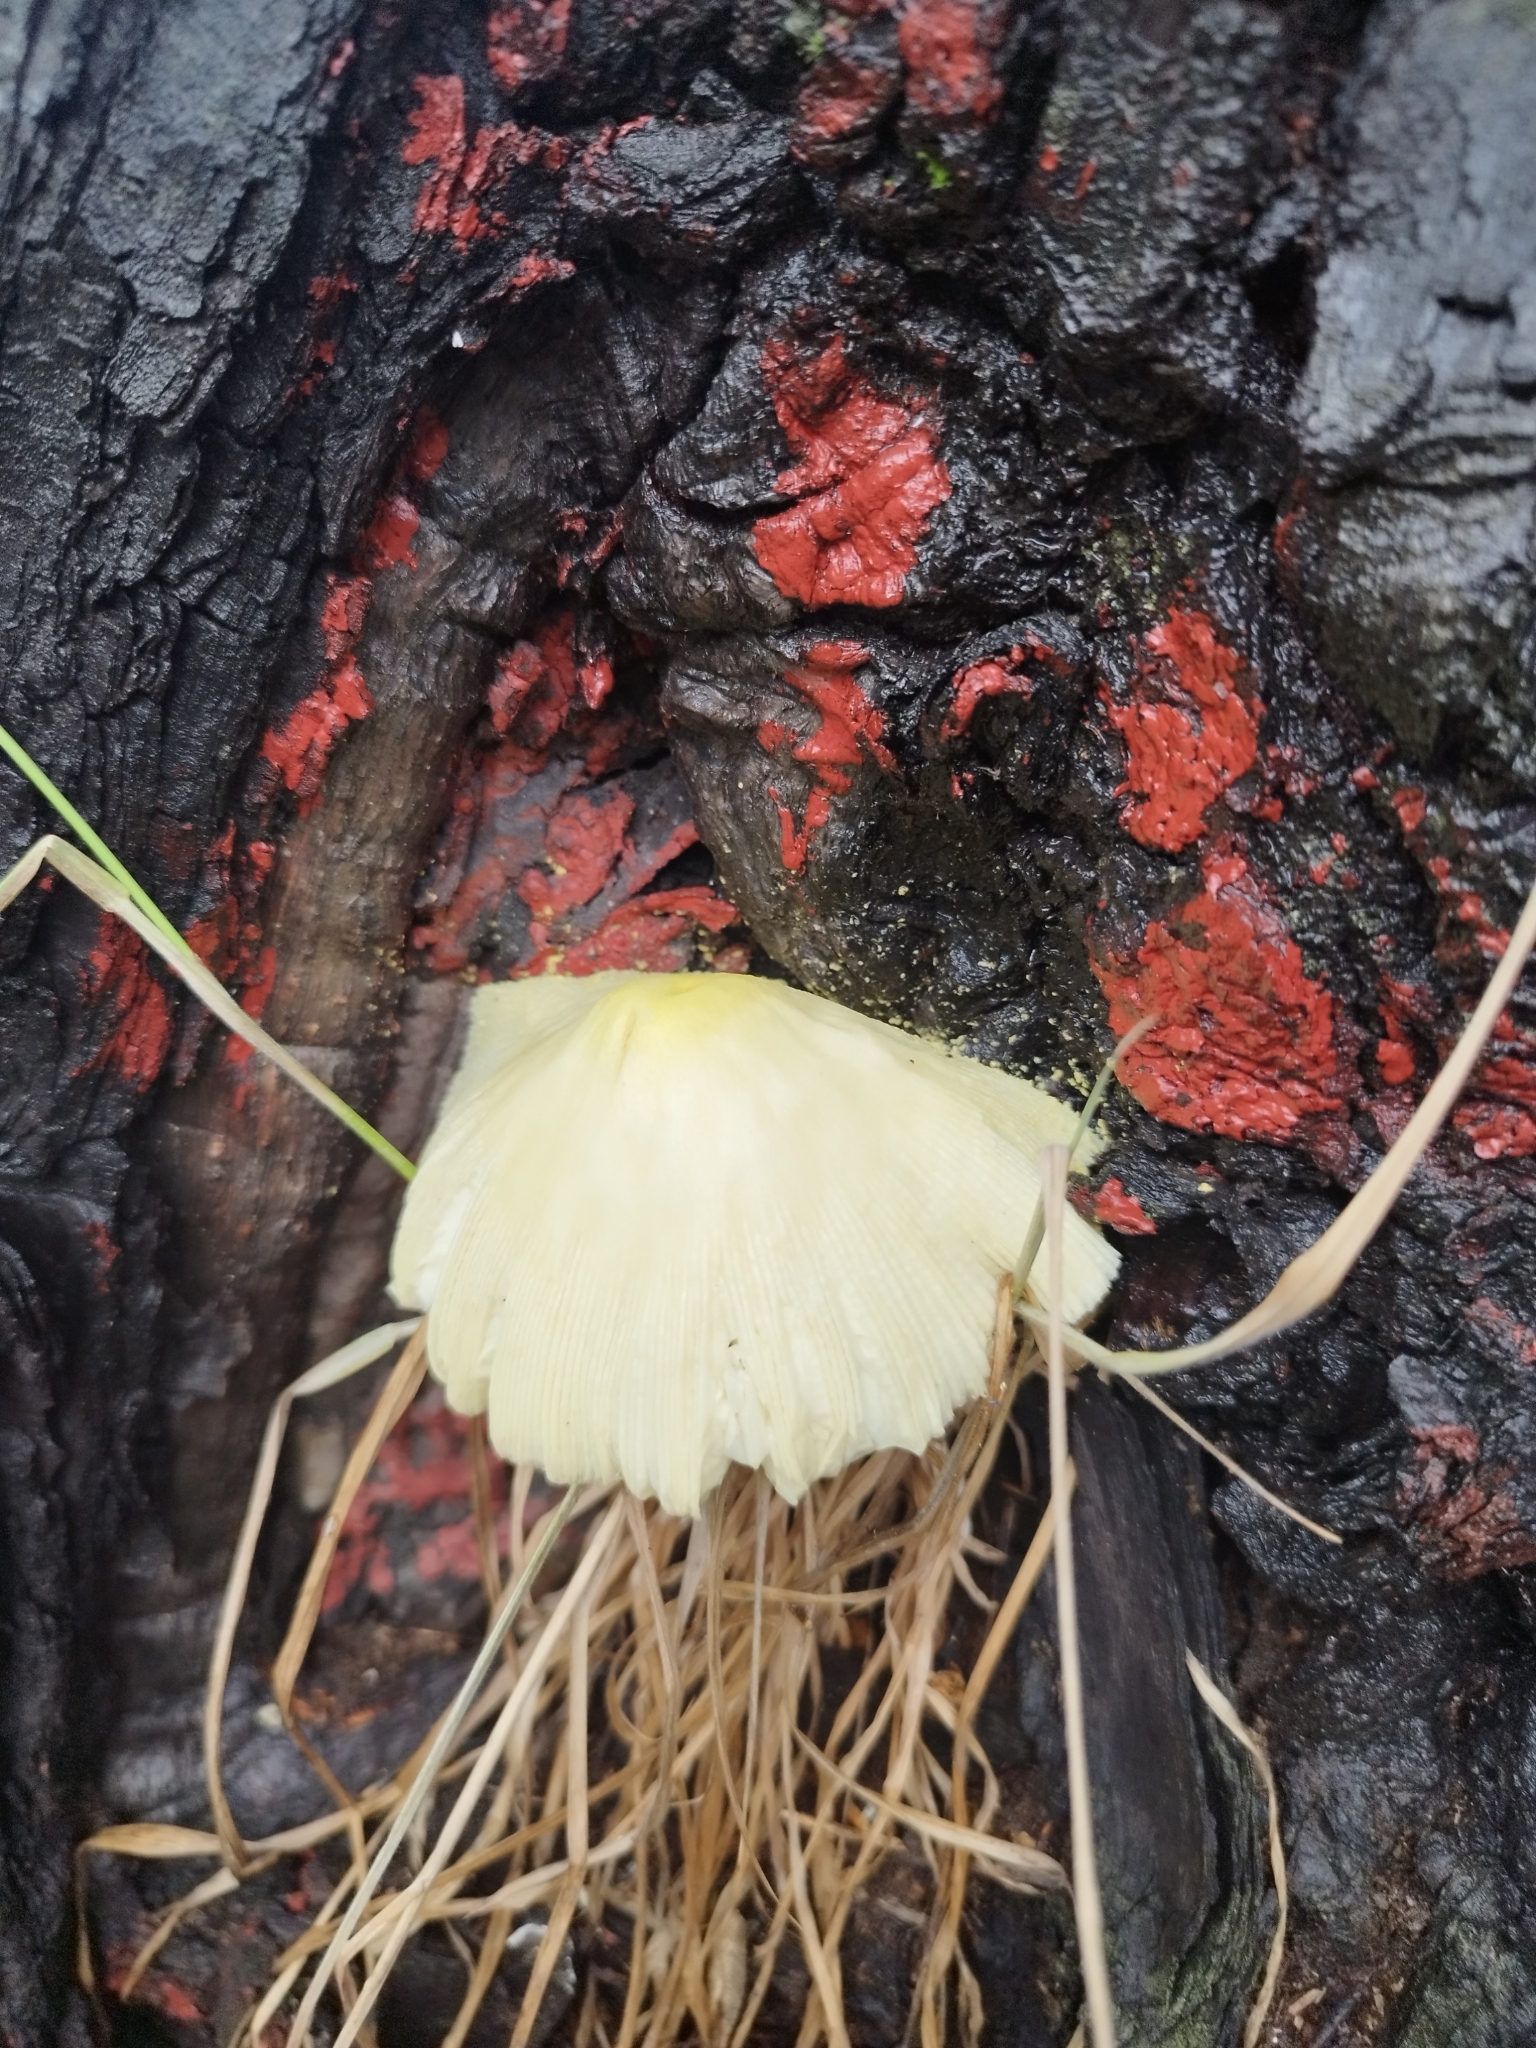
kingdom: Fungi
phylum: Basidiomycota
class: Agaricomycetes
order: Agaricales
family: Agaricaceae
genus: Leucocoprinus
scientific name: Leucocoprinus birnbaumii
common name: Plantpot dapperling
